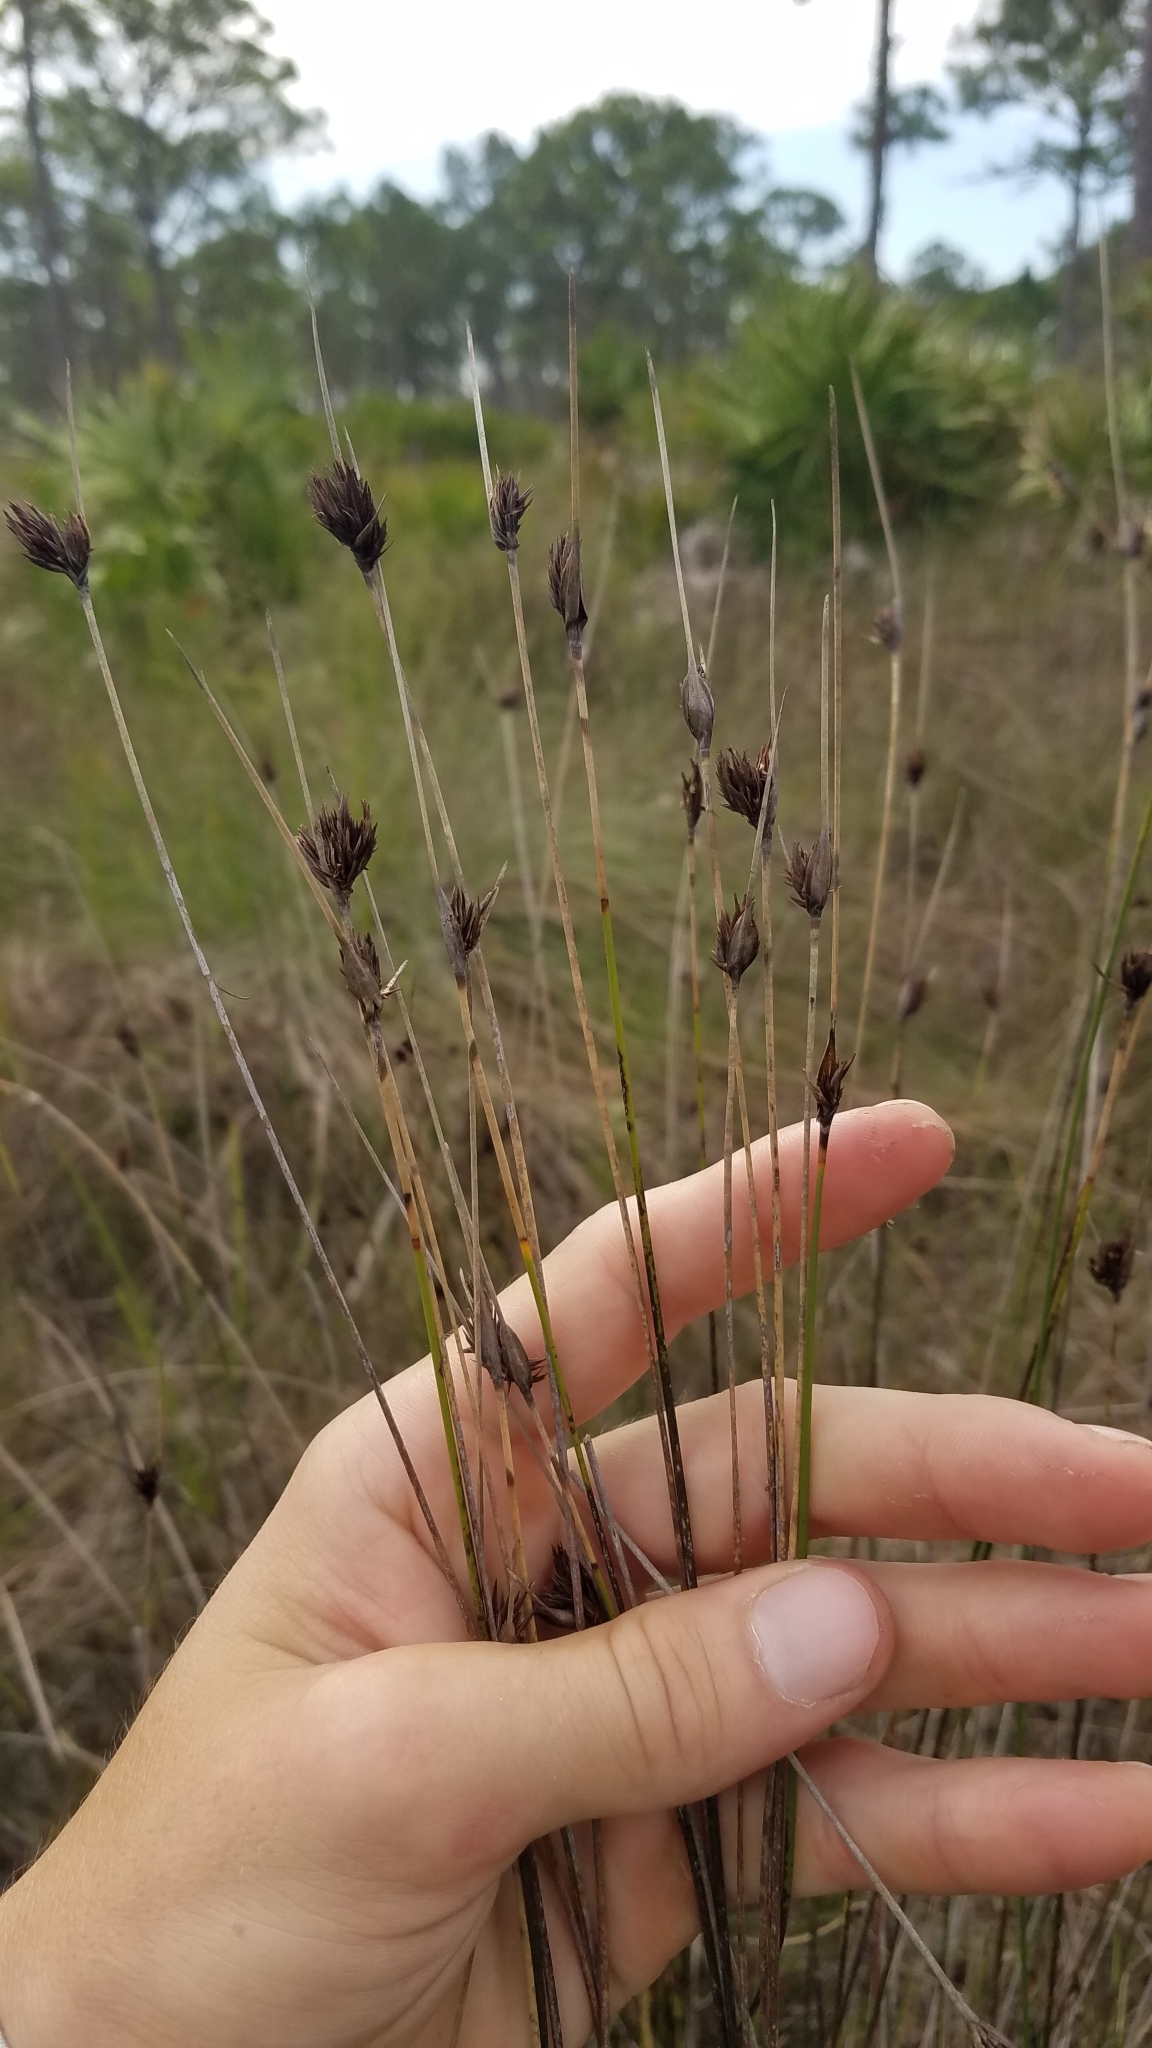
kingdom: Plantae
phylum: Tracheophyta
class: Liliopsida
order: Poales
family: Cyperaceae
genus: Schoenus
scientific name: Schoenus nigricans
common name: Black bog-rush
